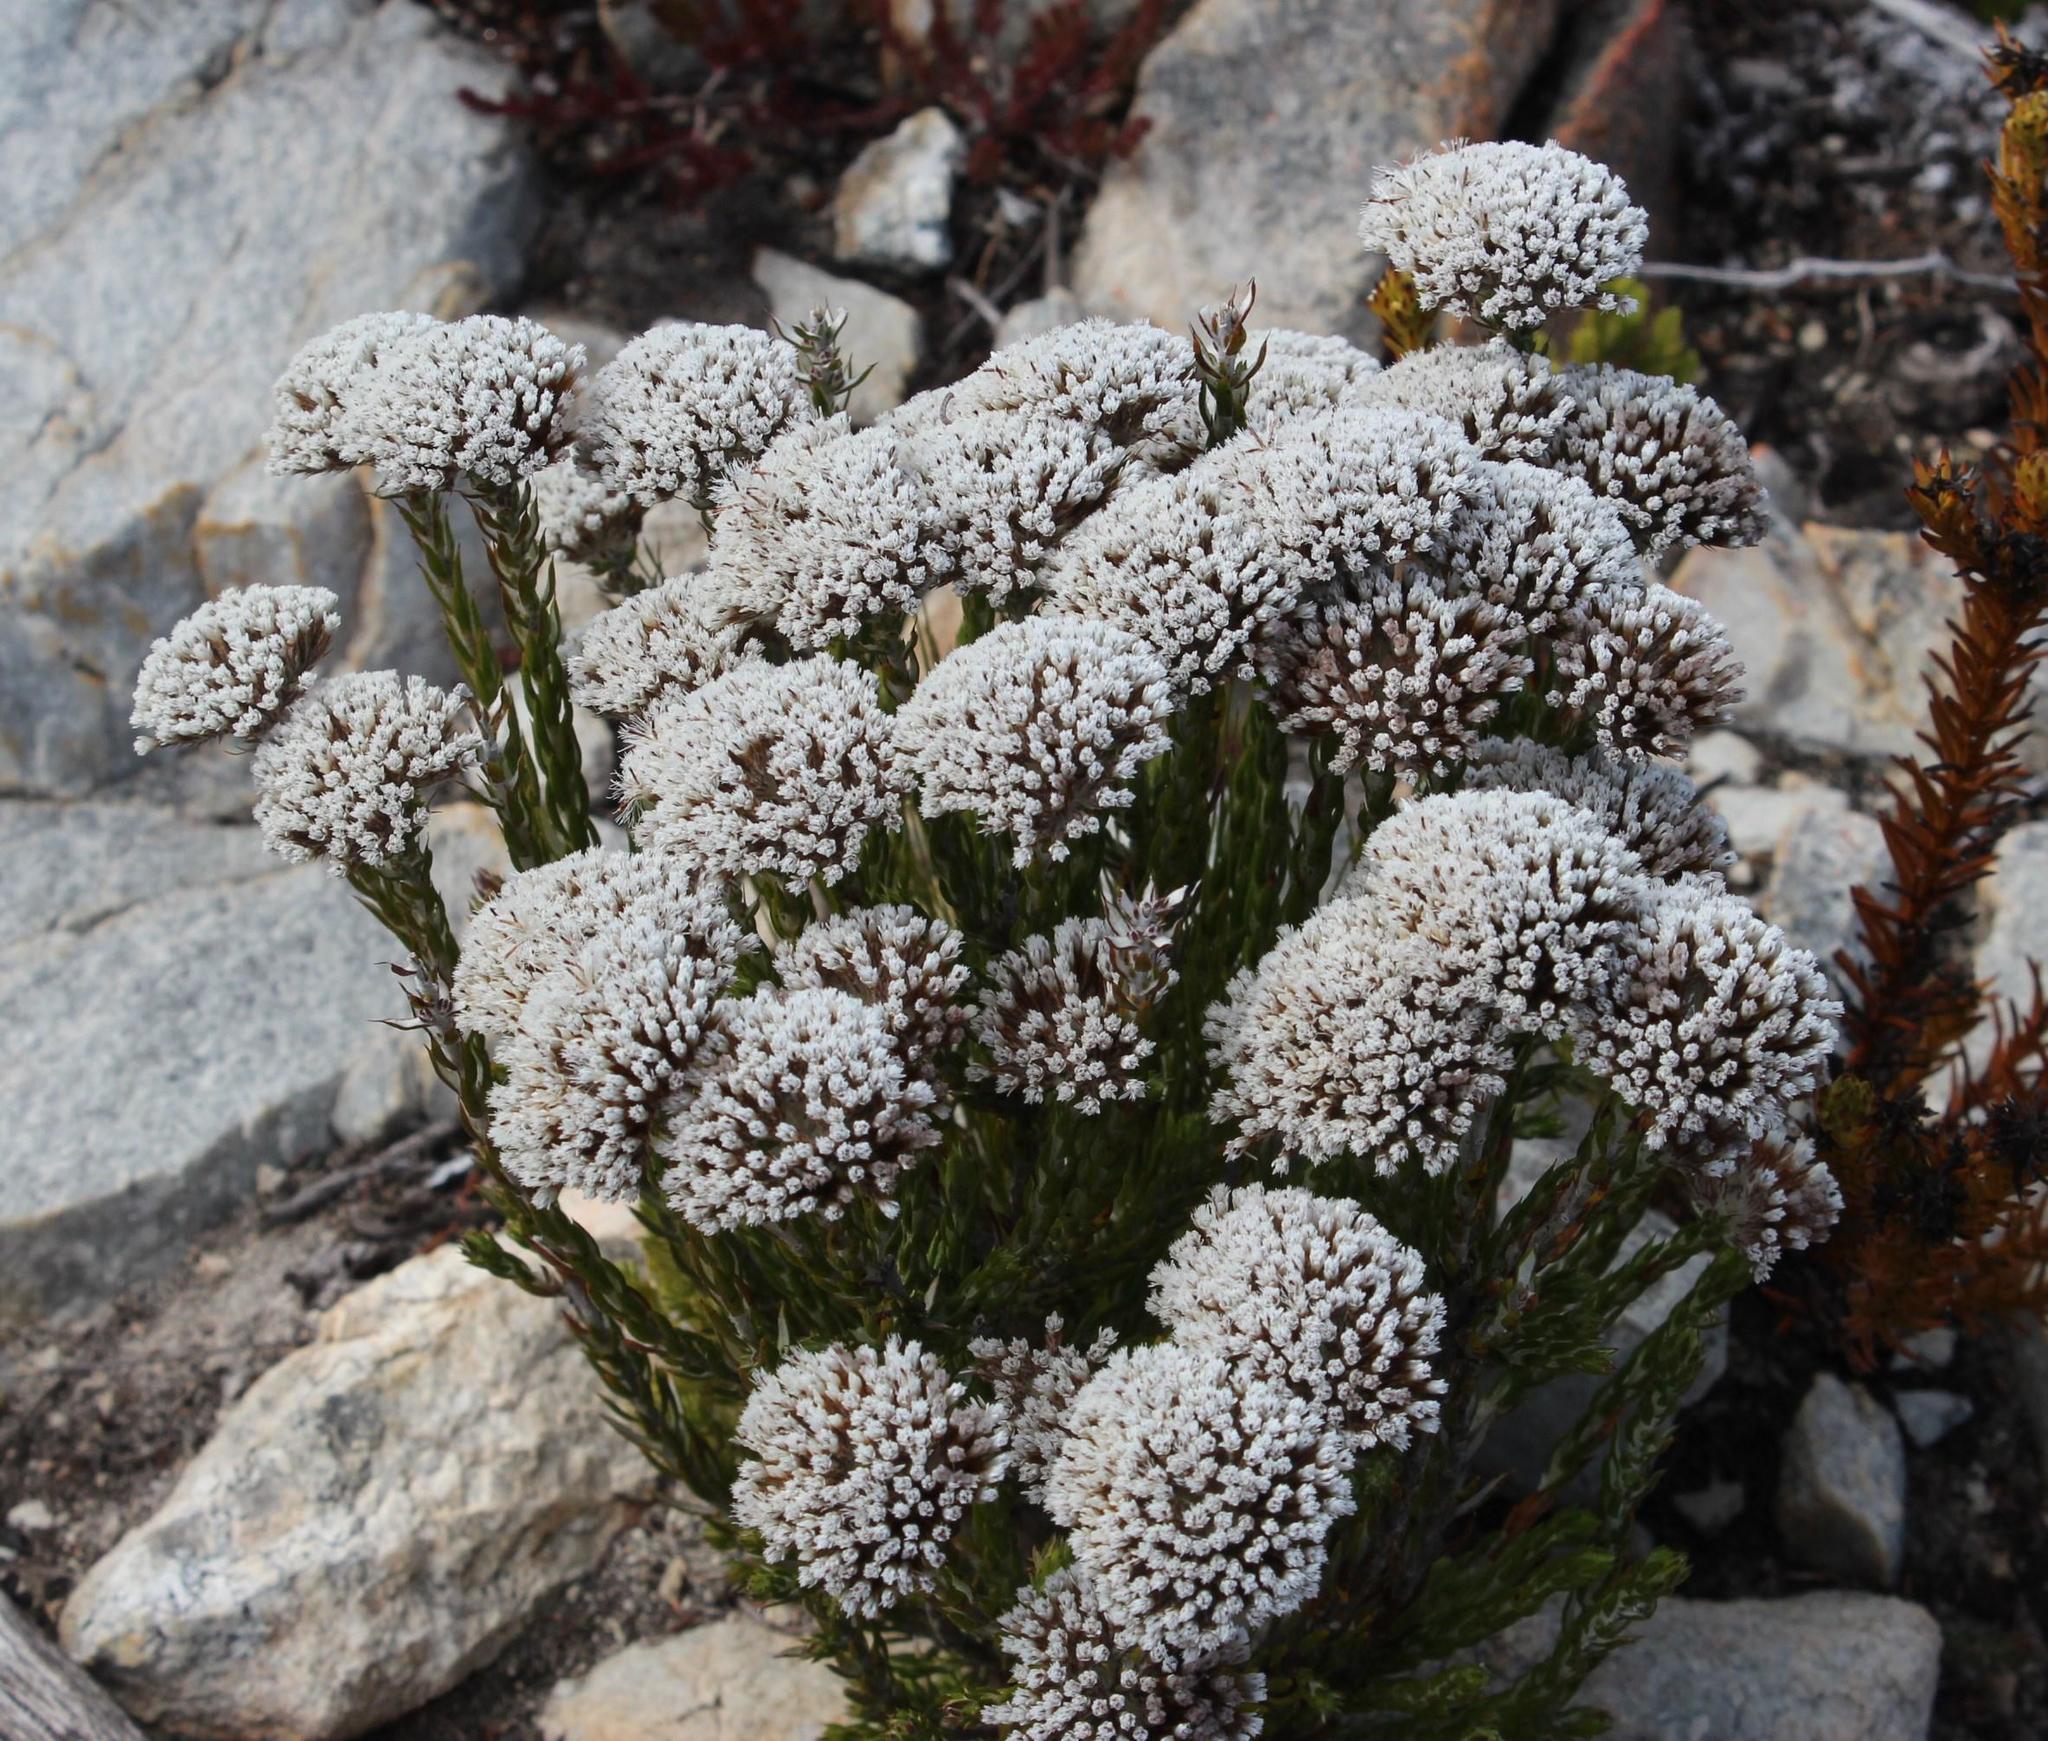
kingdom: Plantae
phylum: Tracheophyta
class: Magnoliopsida
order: Asterales
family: Asteraceae
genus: Metalasia
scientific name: Metalasia massonii
